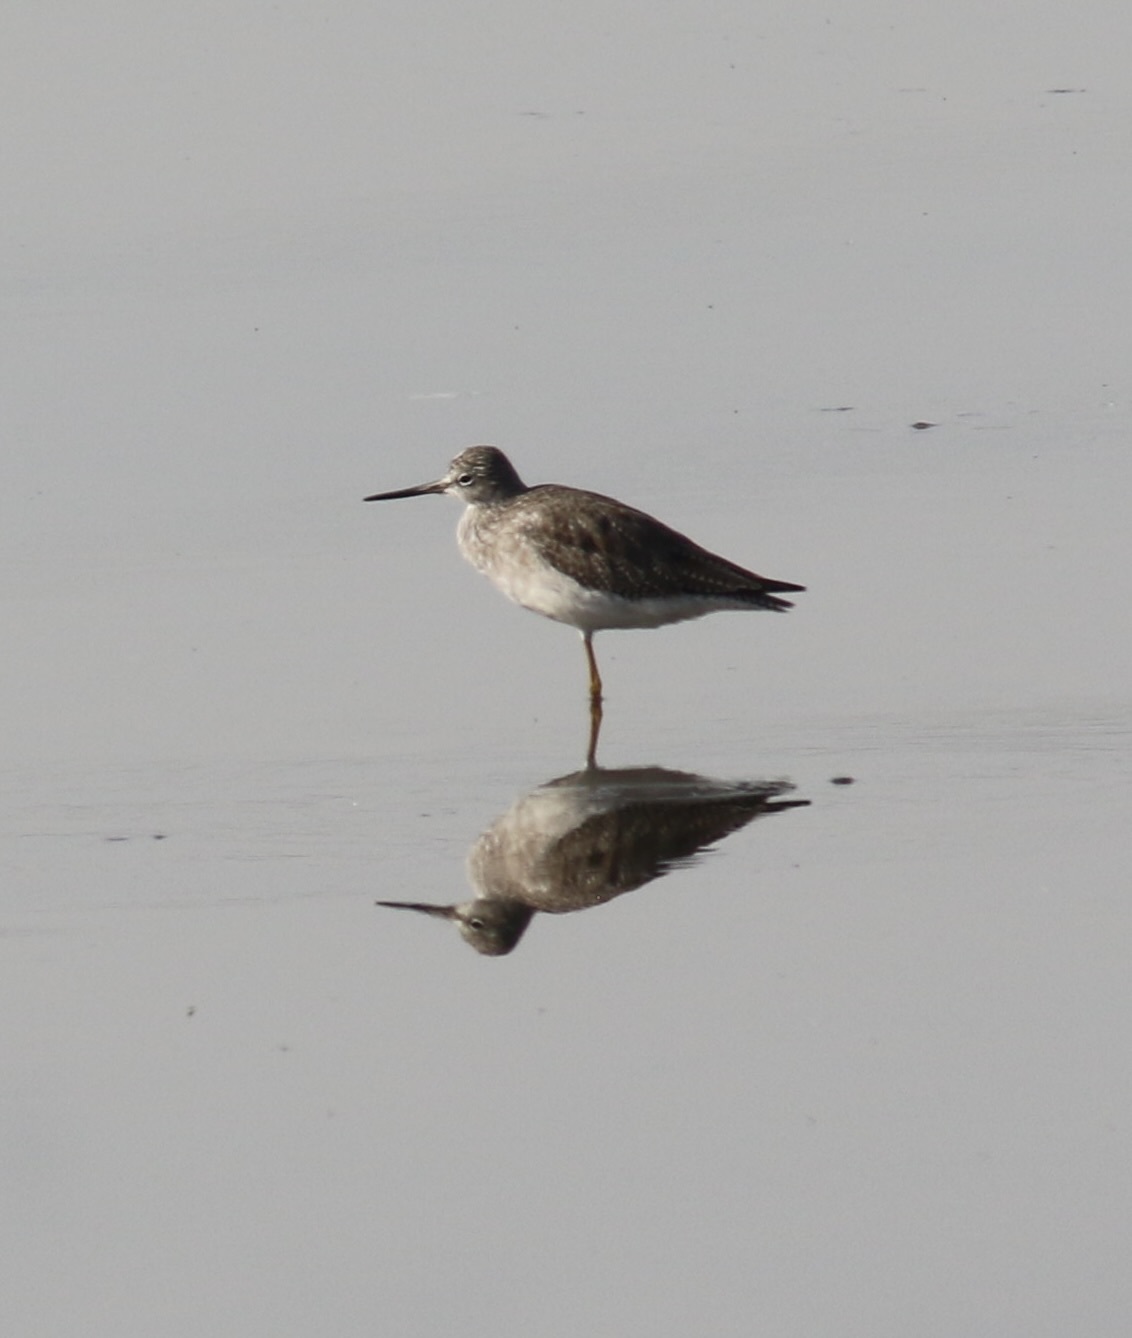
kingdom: Animalia
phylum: Chordata
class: Aves
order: Charadriiformes
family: Scolopacidae
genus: Tringa
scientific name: Tringa melanoleuca
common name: Greater yellowlegs
